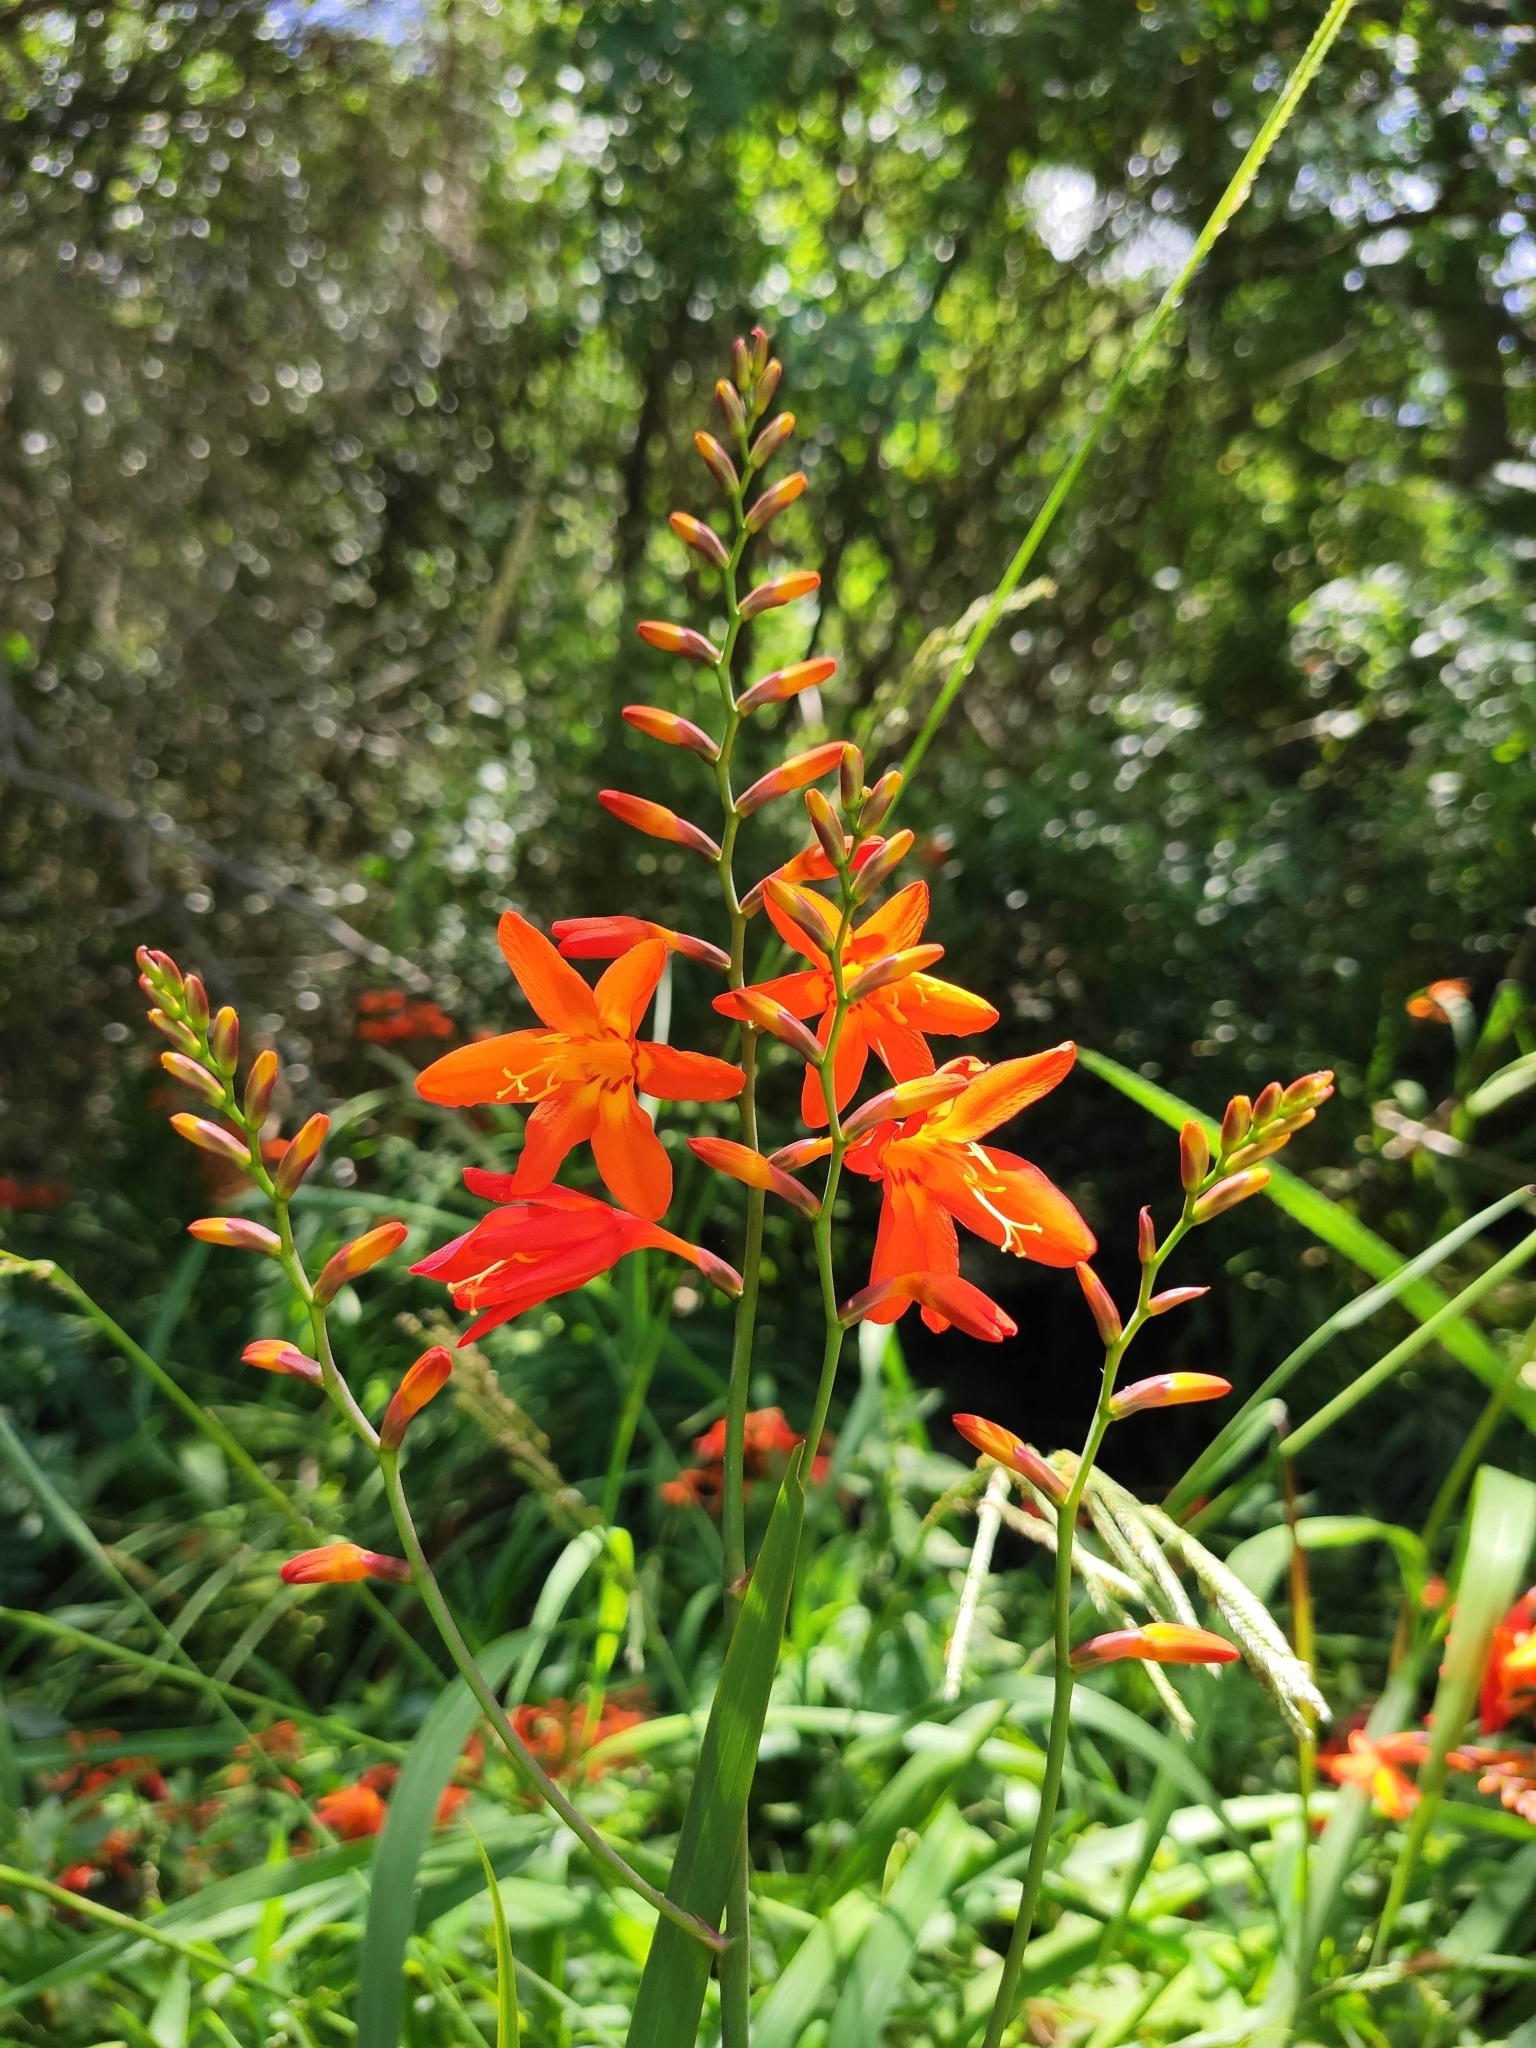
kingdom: Plantae
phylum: Tracheophyta
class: Liliopsida
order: Asparagales
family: Iridaceae
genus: Crocosmia
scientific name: Crocosmia crocosmiiflora
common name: Montbretia
